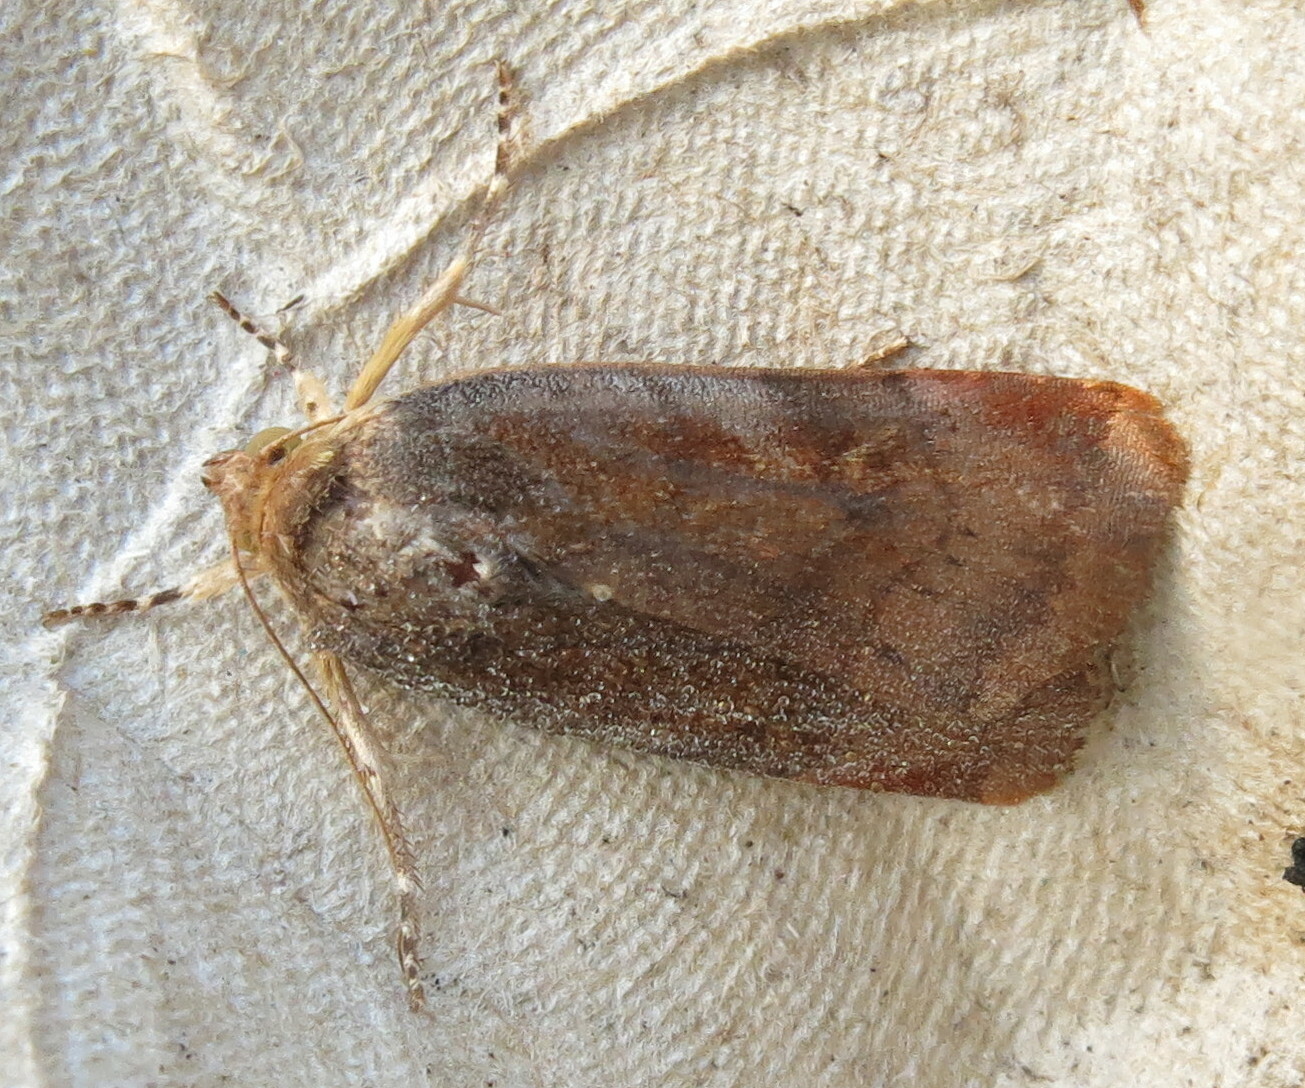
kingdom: Animalia
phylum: Arthropoda
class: Insecta
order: Lepidoptera
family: Noctuidae
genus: Noctua
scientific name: Noctua
